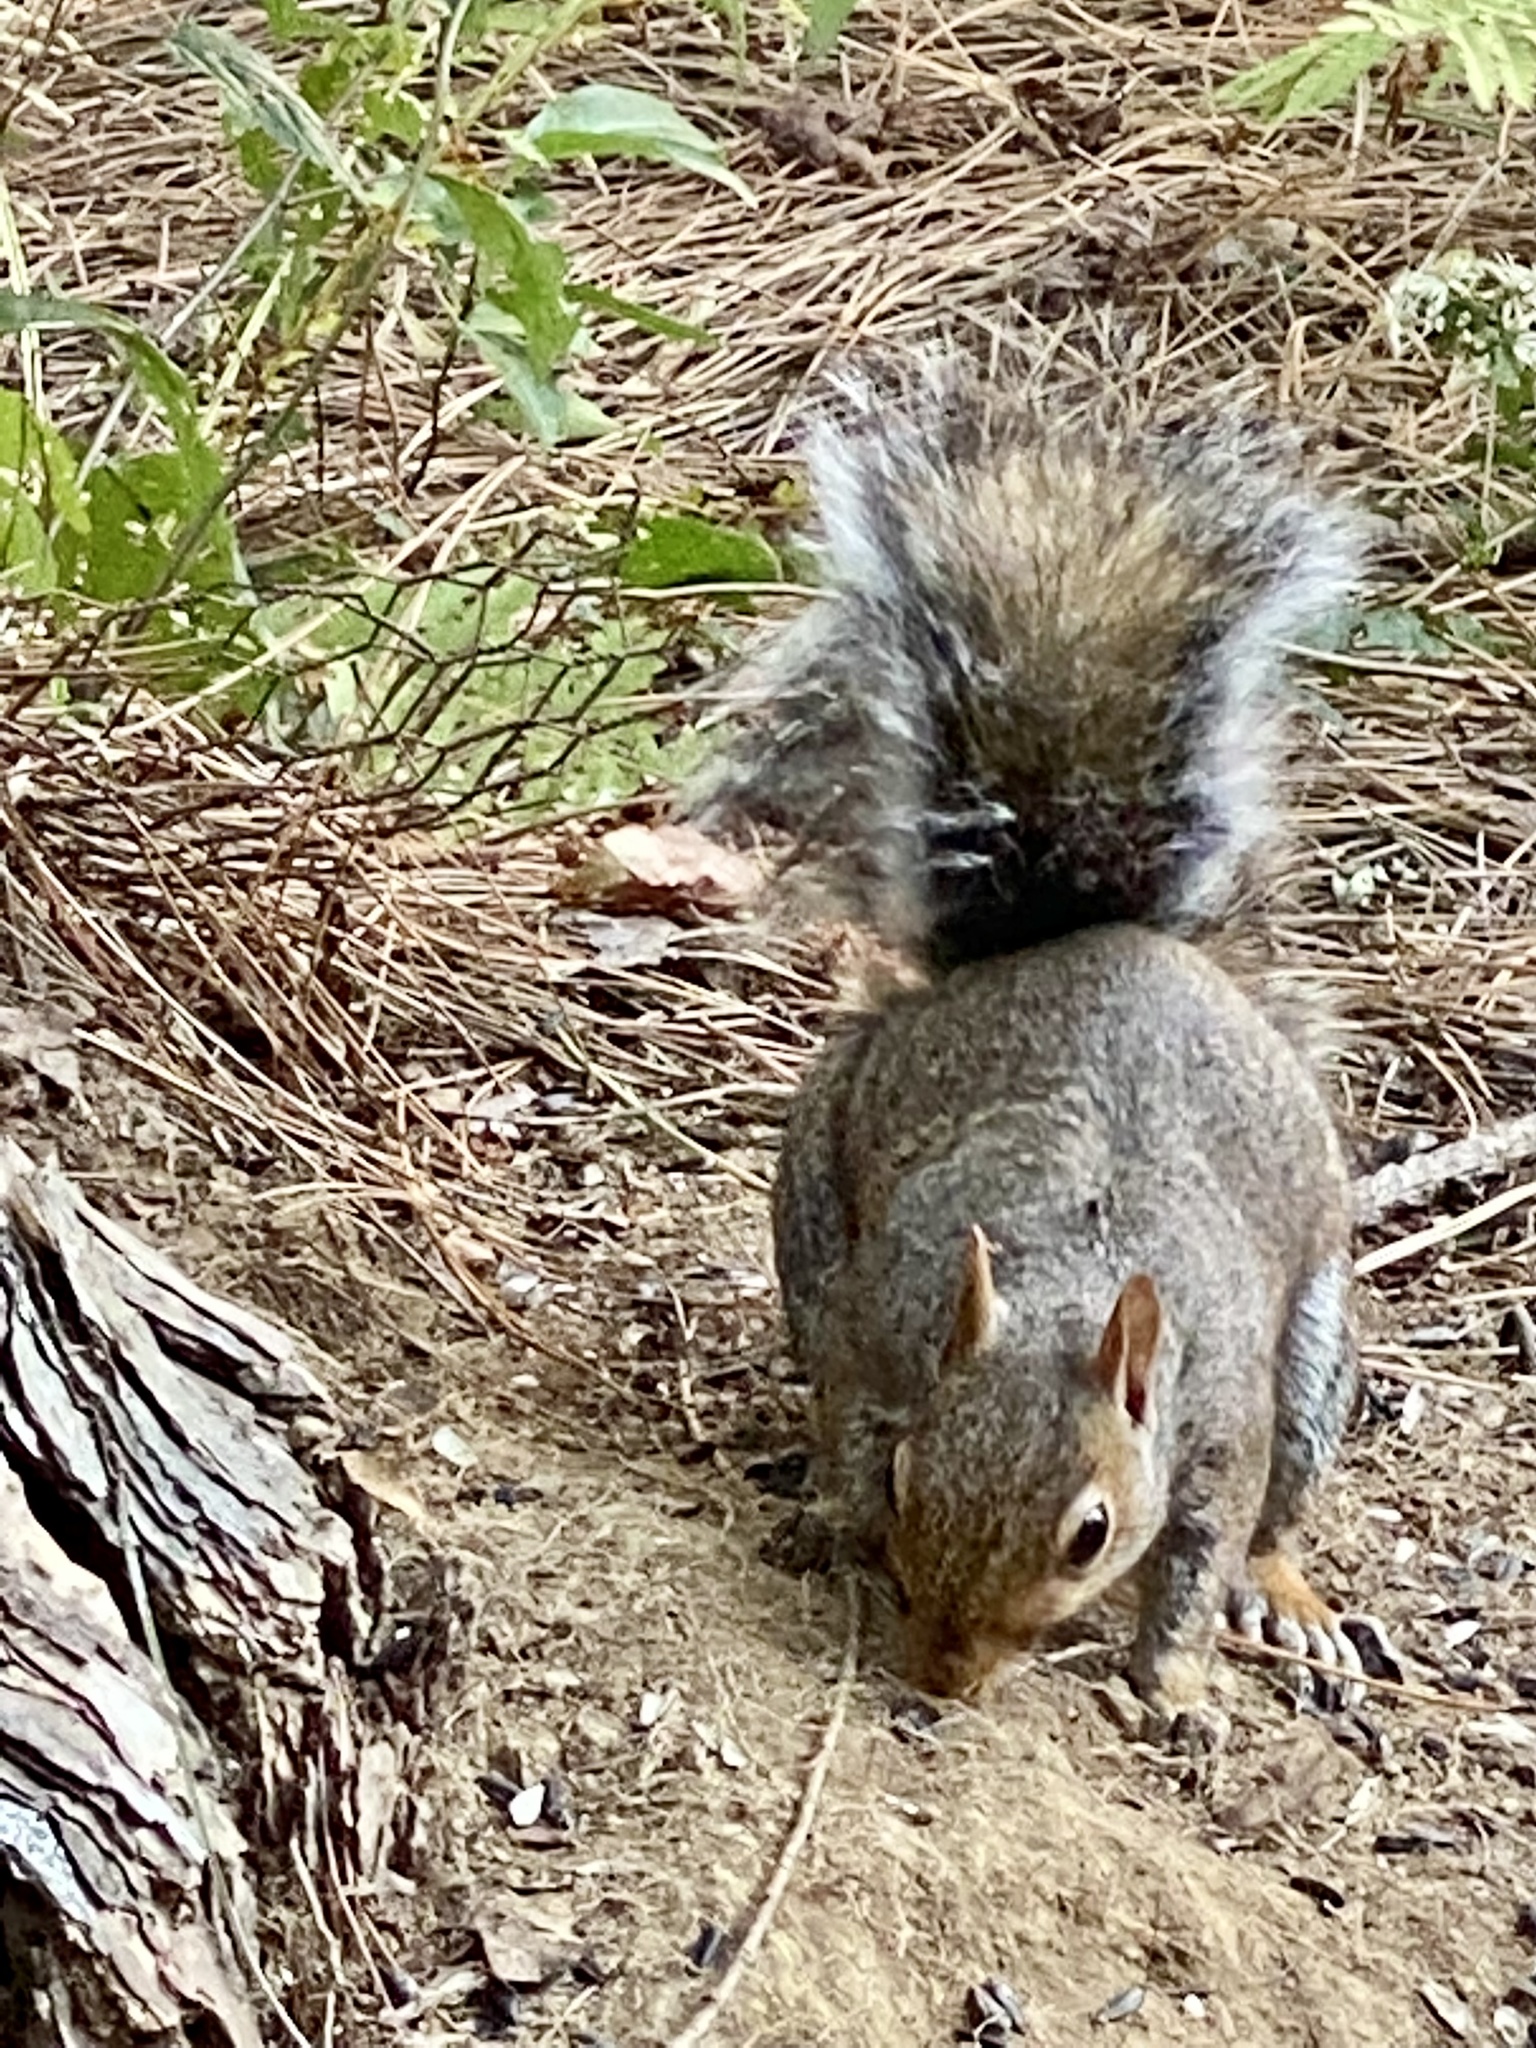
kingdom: Animalia
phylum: Chordata
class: Mammalia
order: Rodentia
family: Sciuridae
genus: Sciurus
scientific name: Sciurus carolinensis
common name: Eastern gray squirrel
